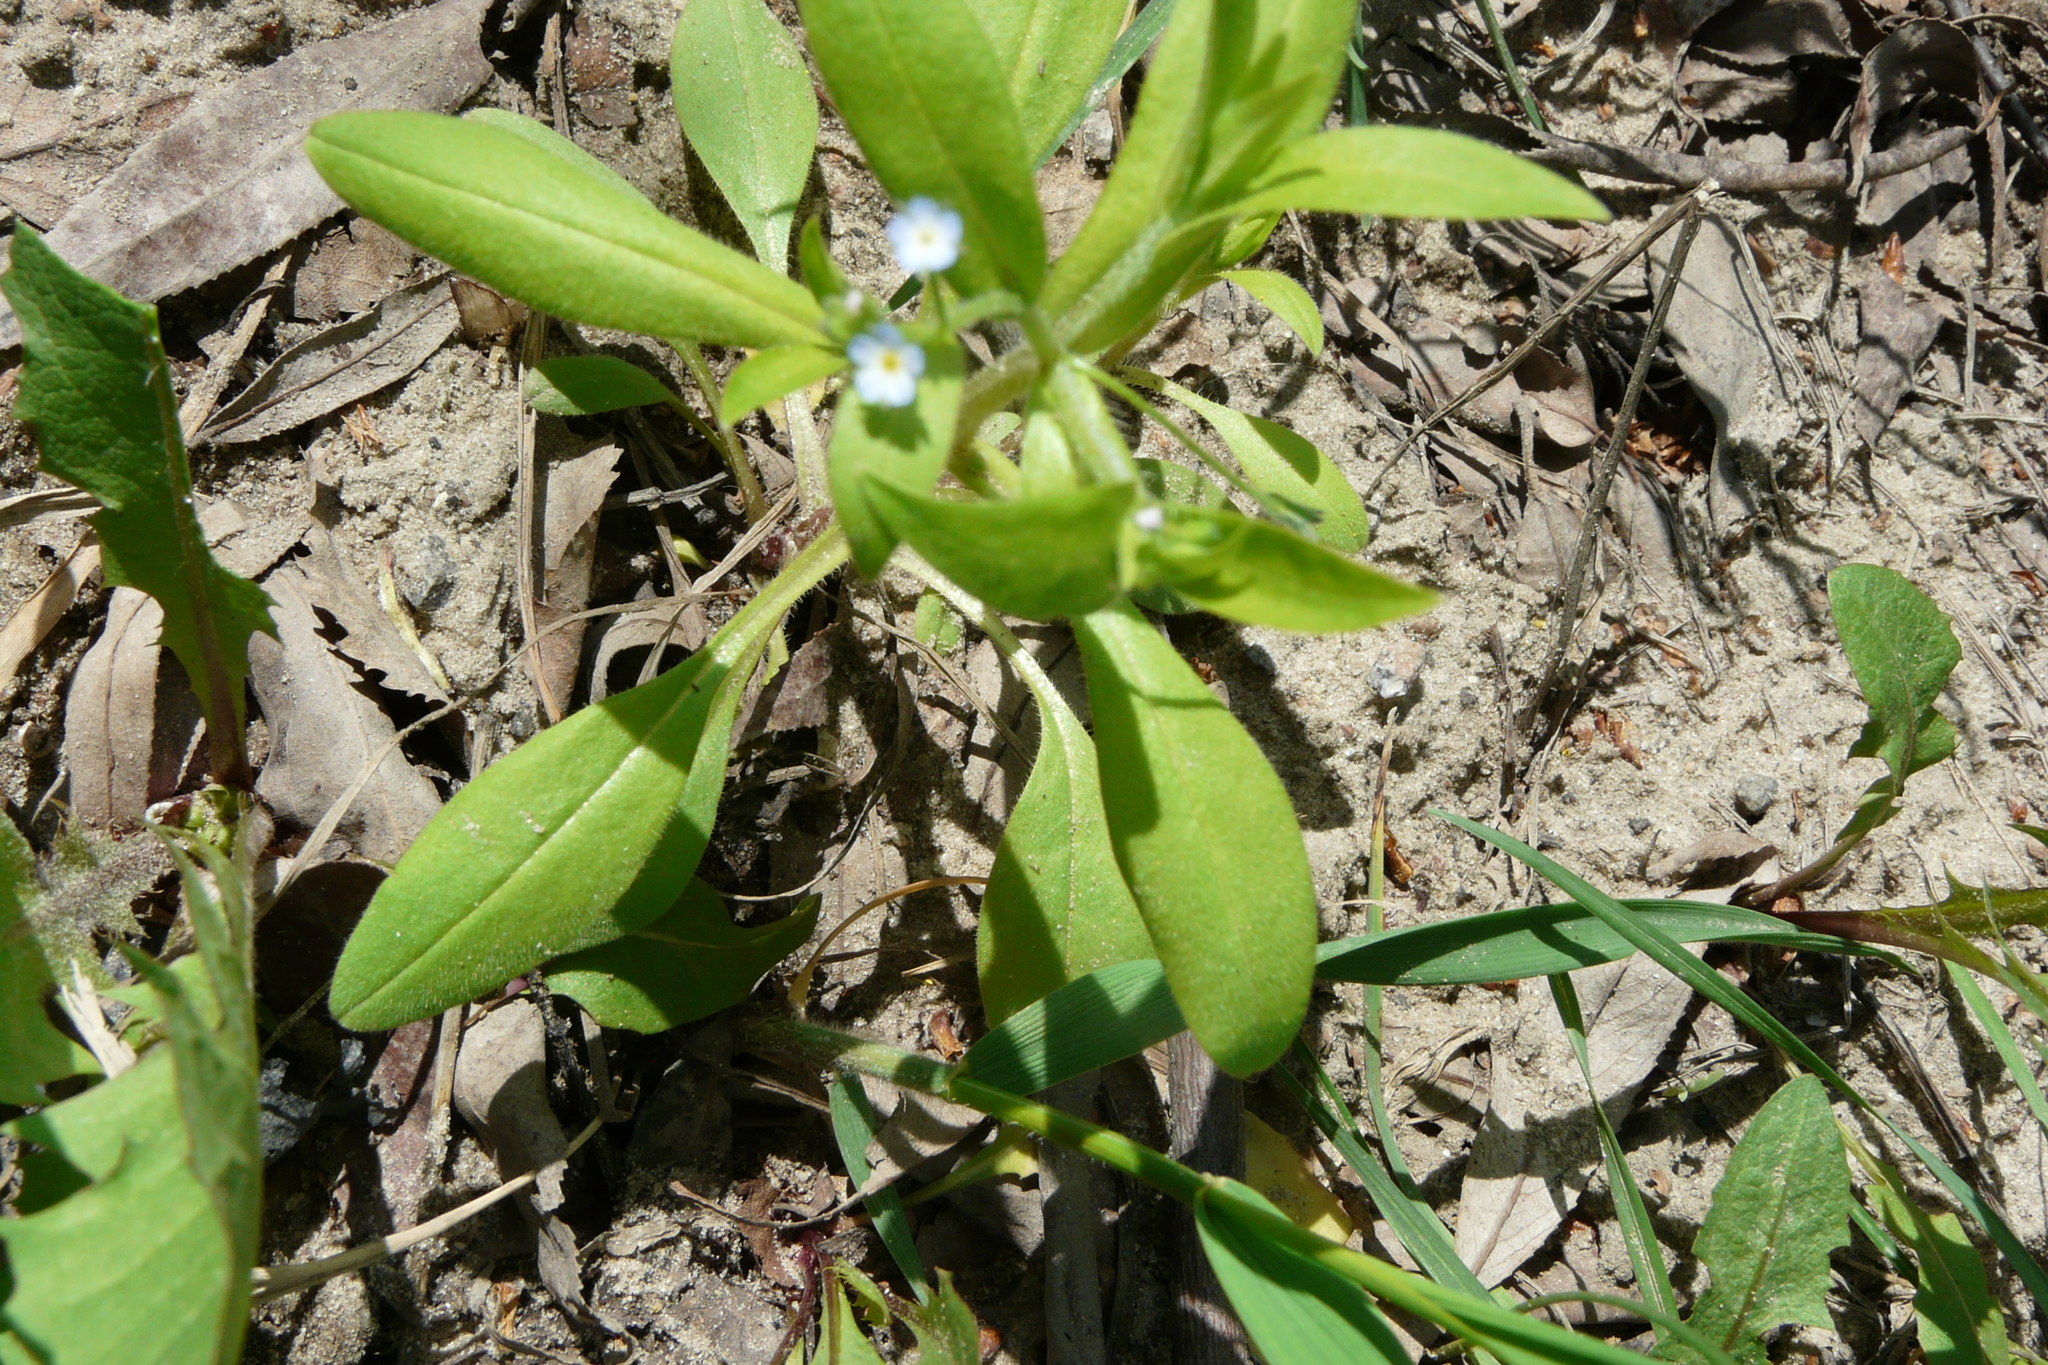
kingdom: Plantae
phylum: Tracheophyta
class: Magnoliopsida
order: Boraginales
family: Boraginaceae
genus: Myosotis
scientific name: Myosotis sparsiflora
